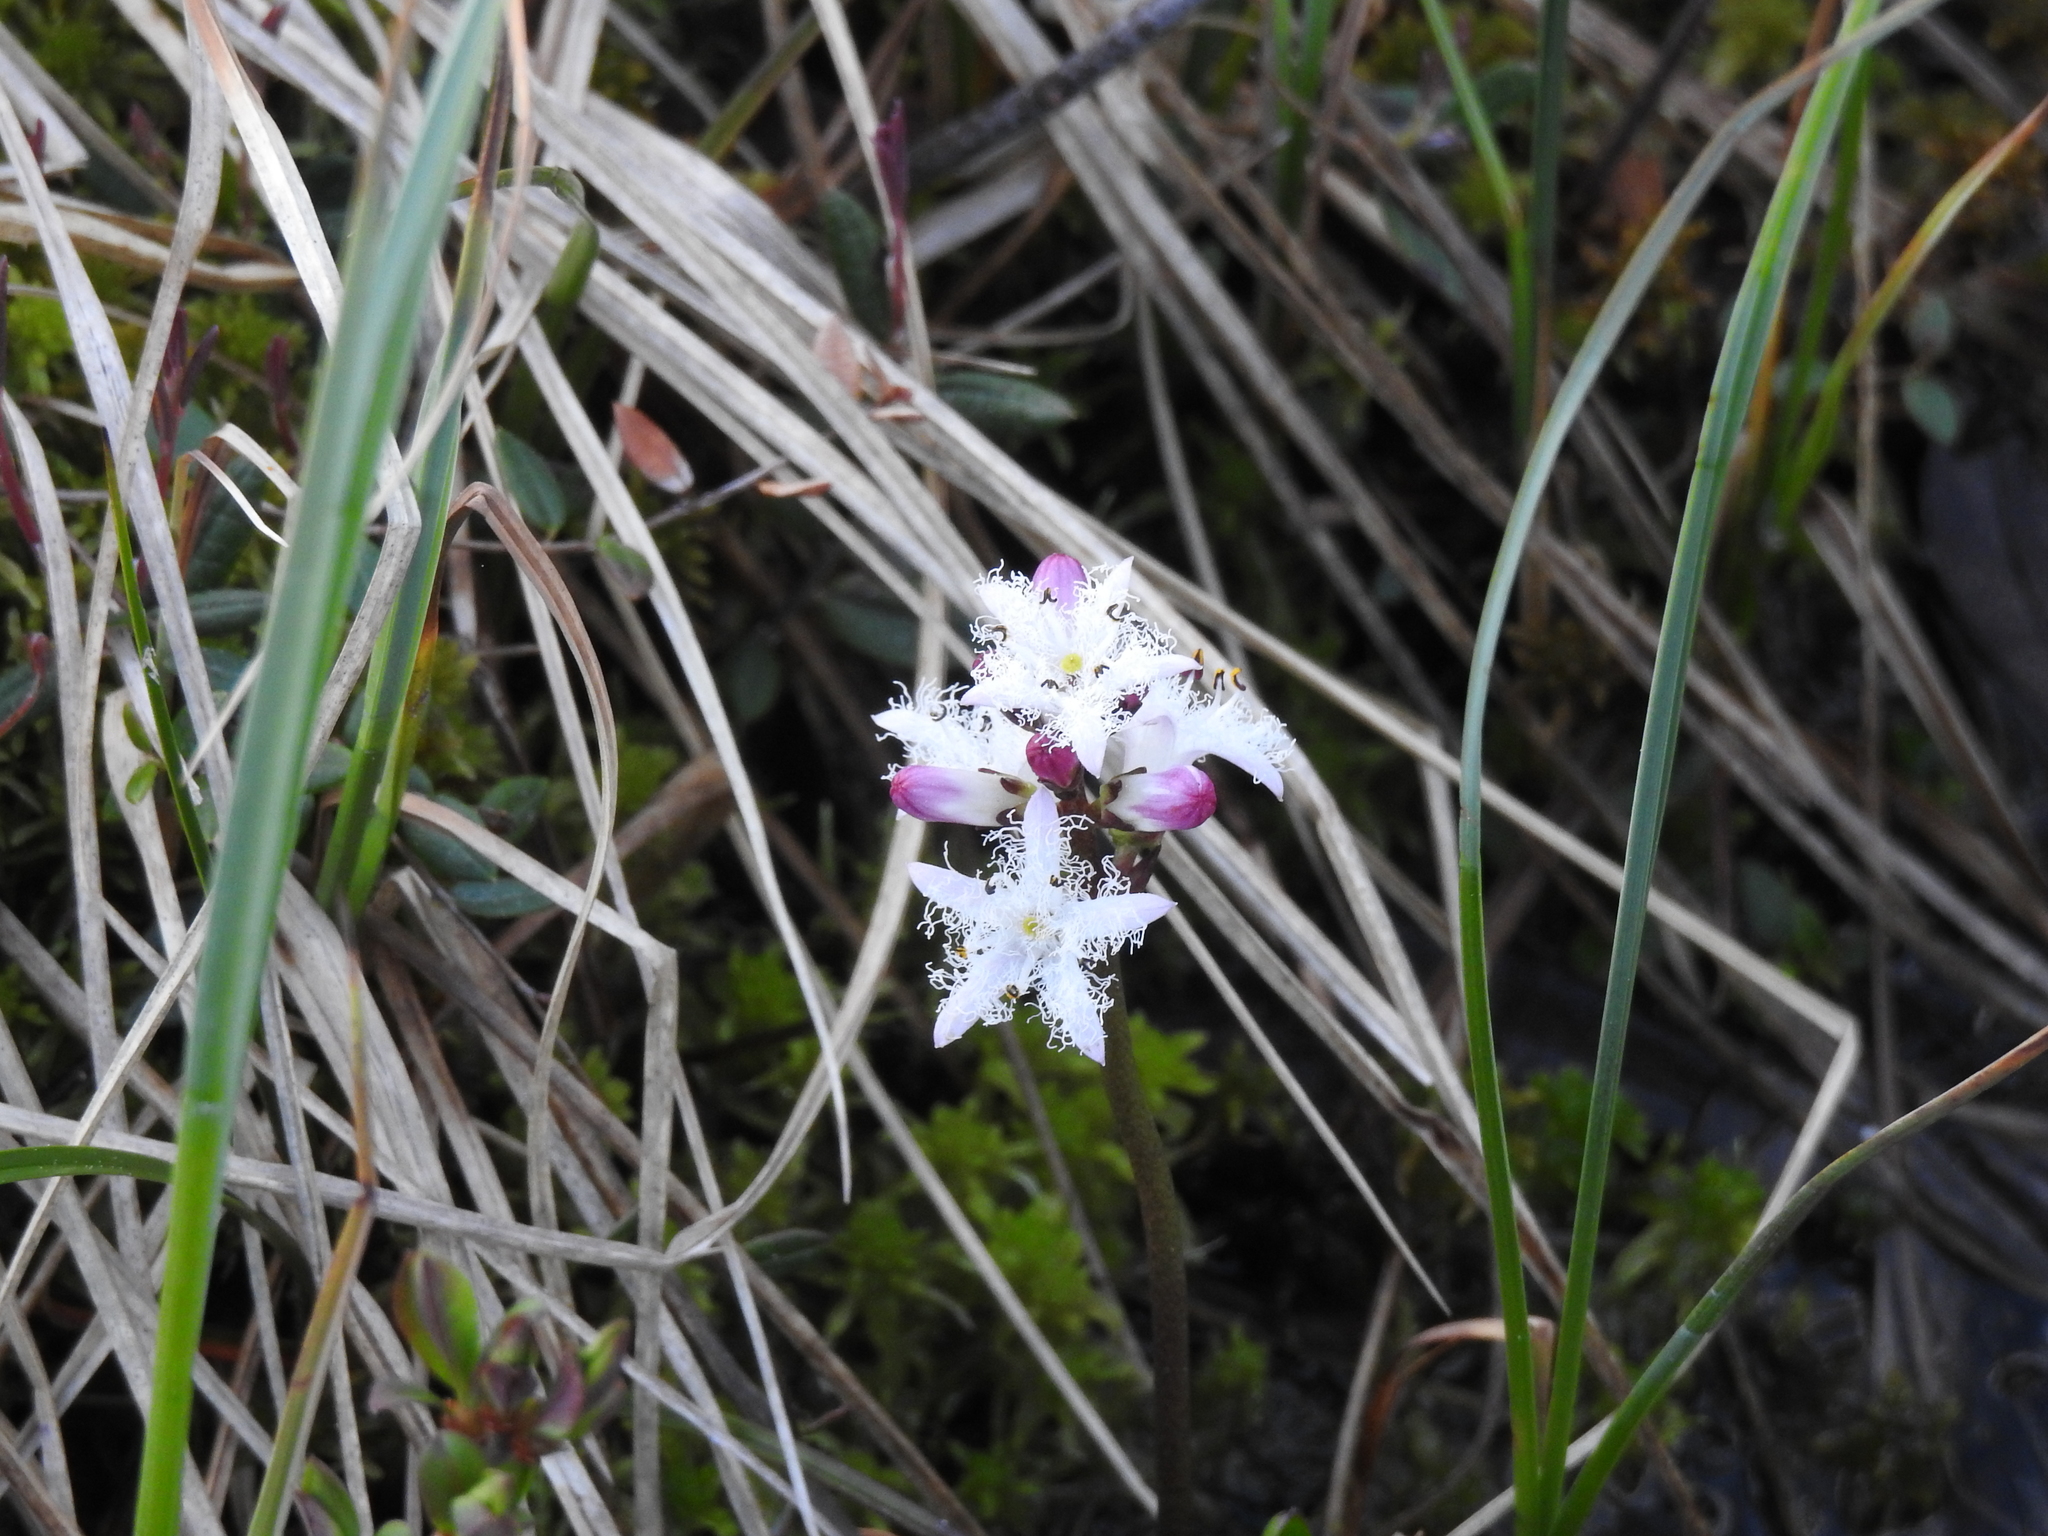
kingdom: Plantae
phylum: Tracheophyta
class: Magnoliopsida
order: Asterales
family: Menyanthaceae
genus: Menyanthes
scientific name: Menyanthes trifoliata
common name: Bogbean
